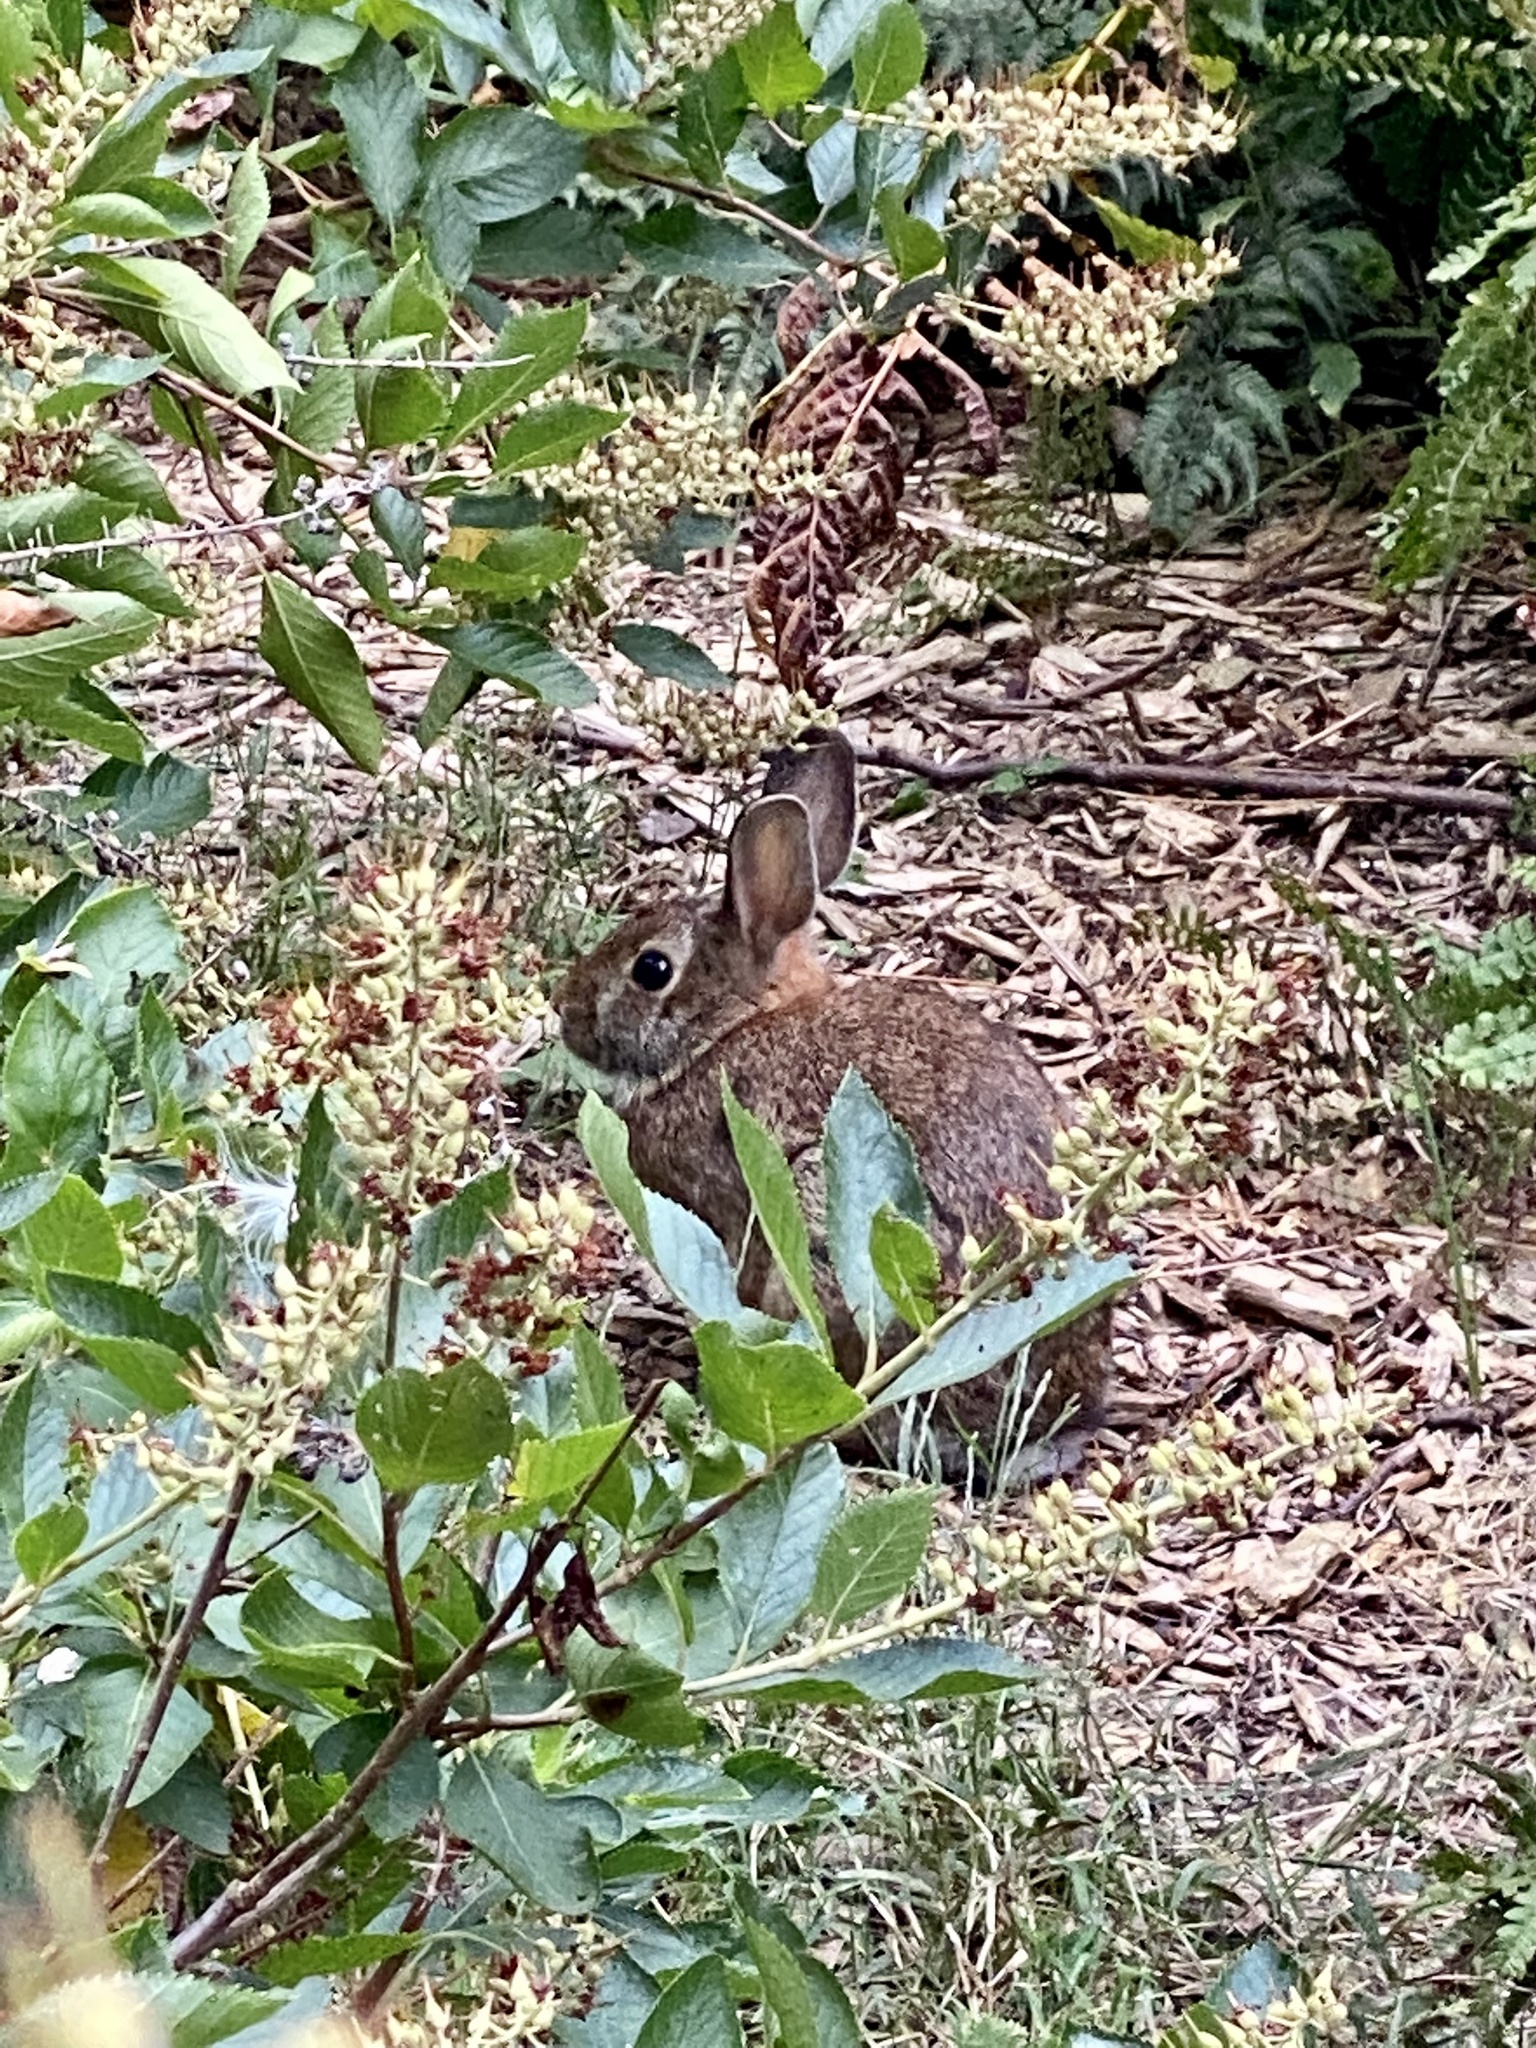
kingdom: Animalia
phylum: Chordata
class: Mammalia
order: Lagomorpha
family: Leporidae
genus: Sylvilagus
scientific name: Sylvilagus floridanus
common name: Eastern cottontail
